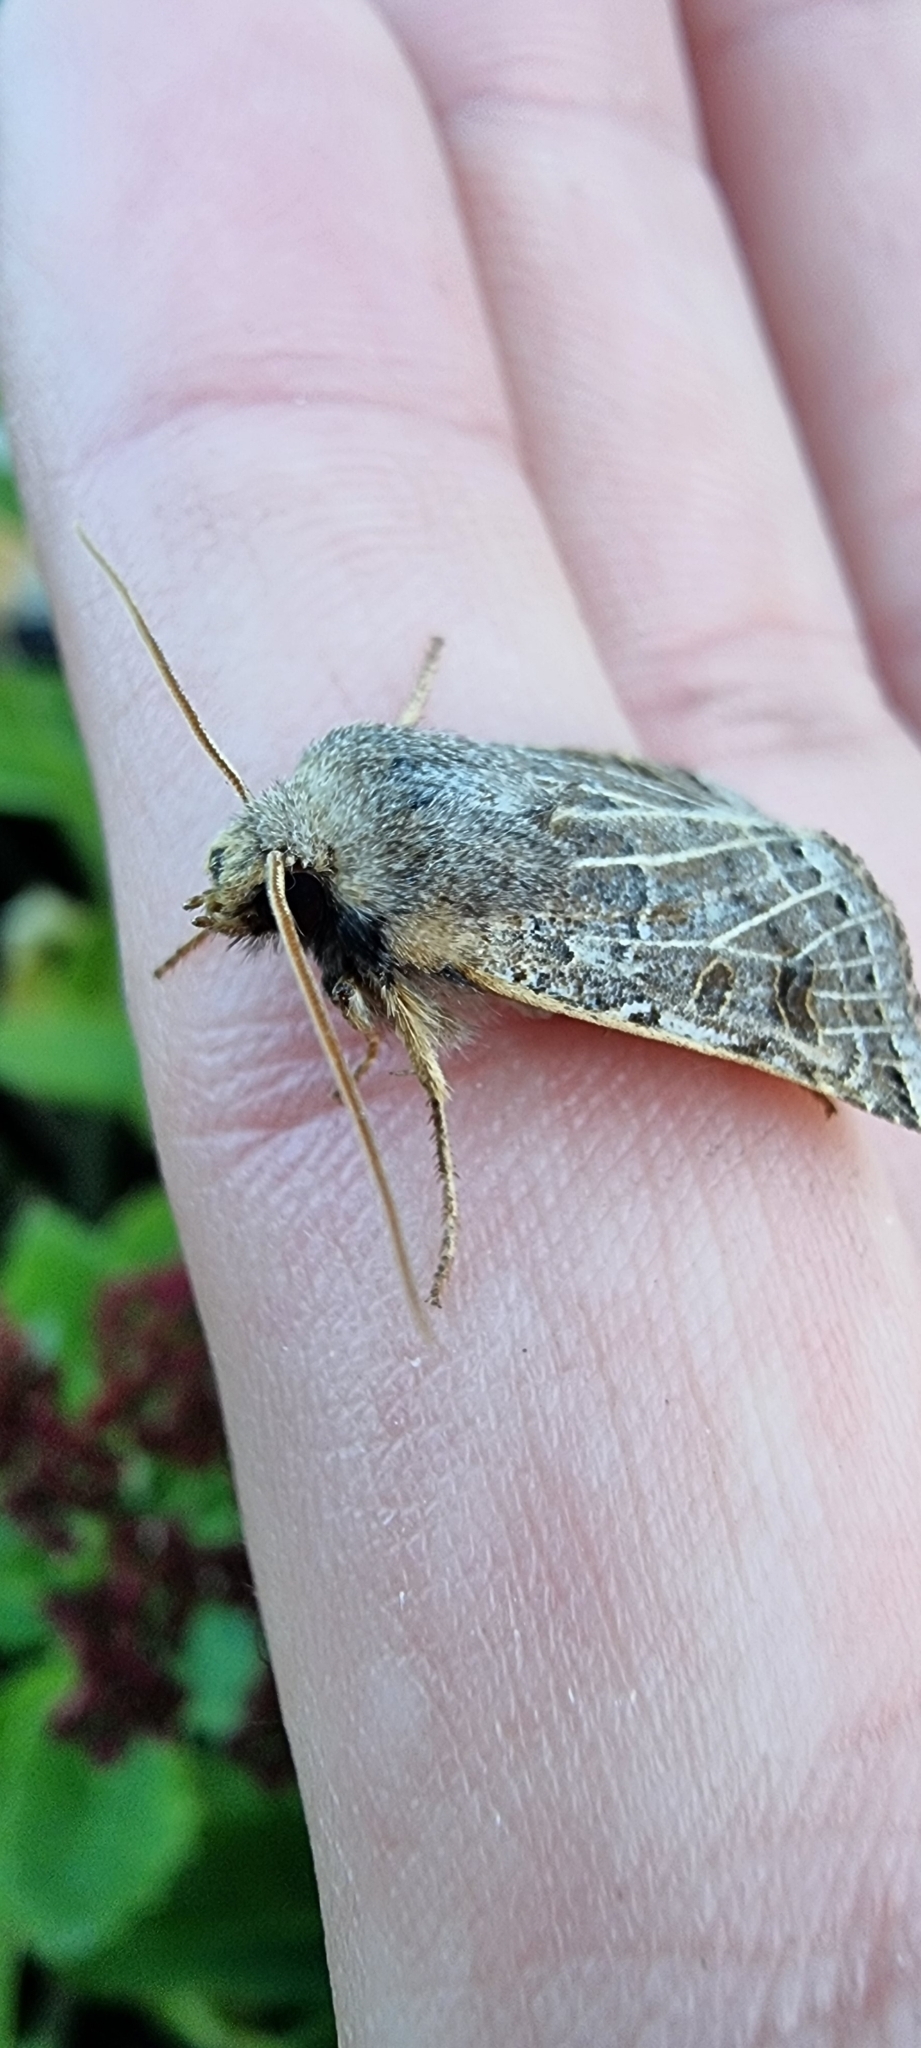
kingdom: Animalia
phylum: Arthropoda
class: Insecta
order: Lepidoptera
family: Noctuidae
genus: Agrochola
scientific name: Agrochola lunosa
